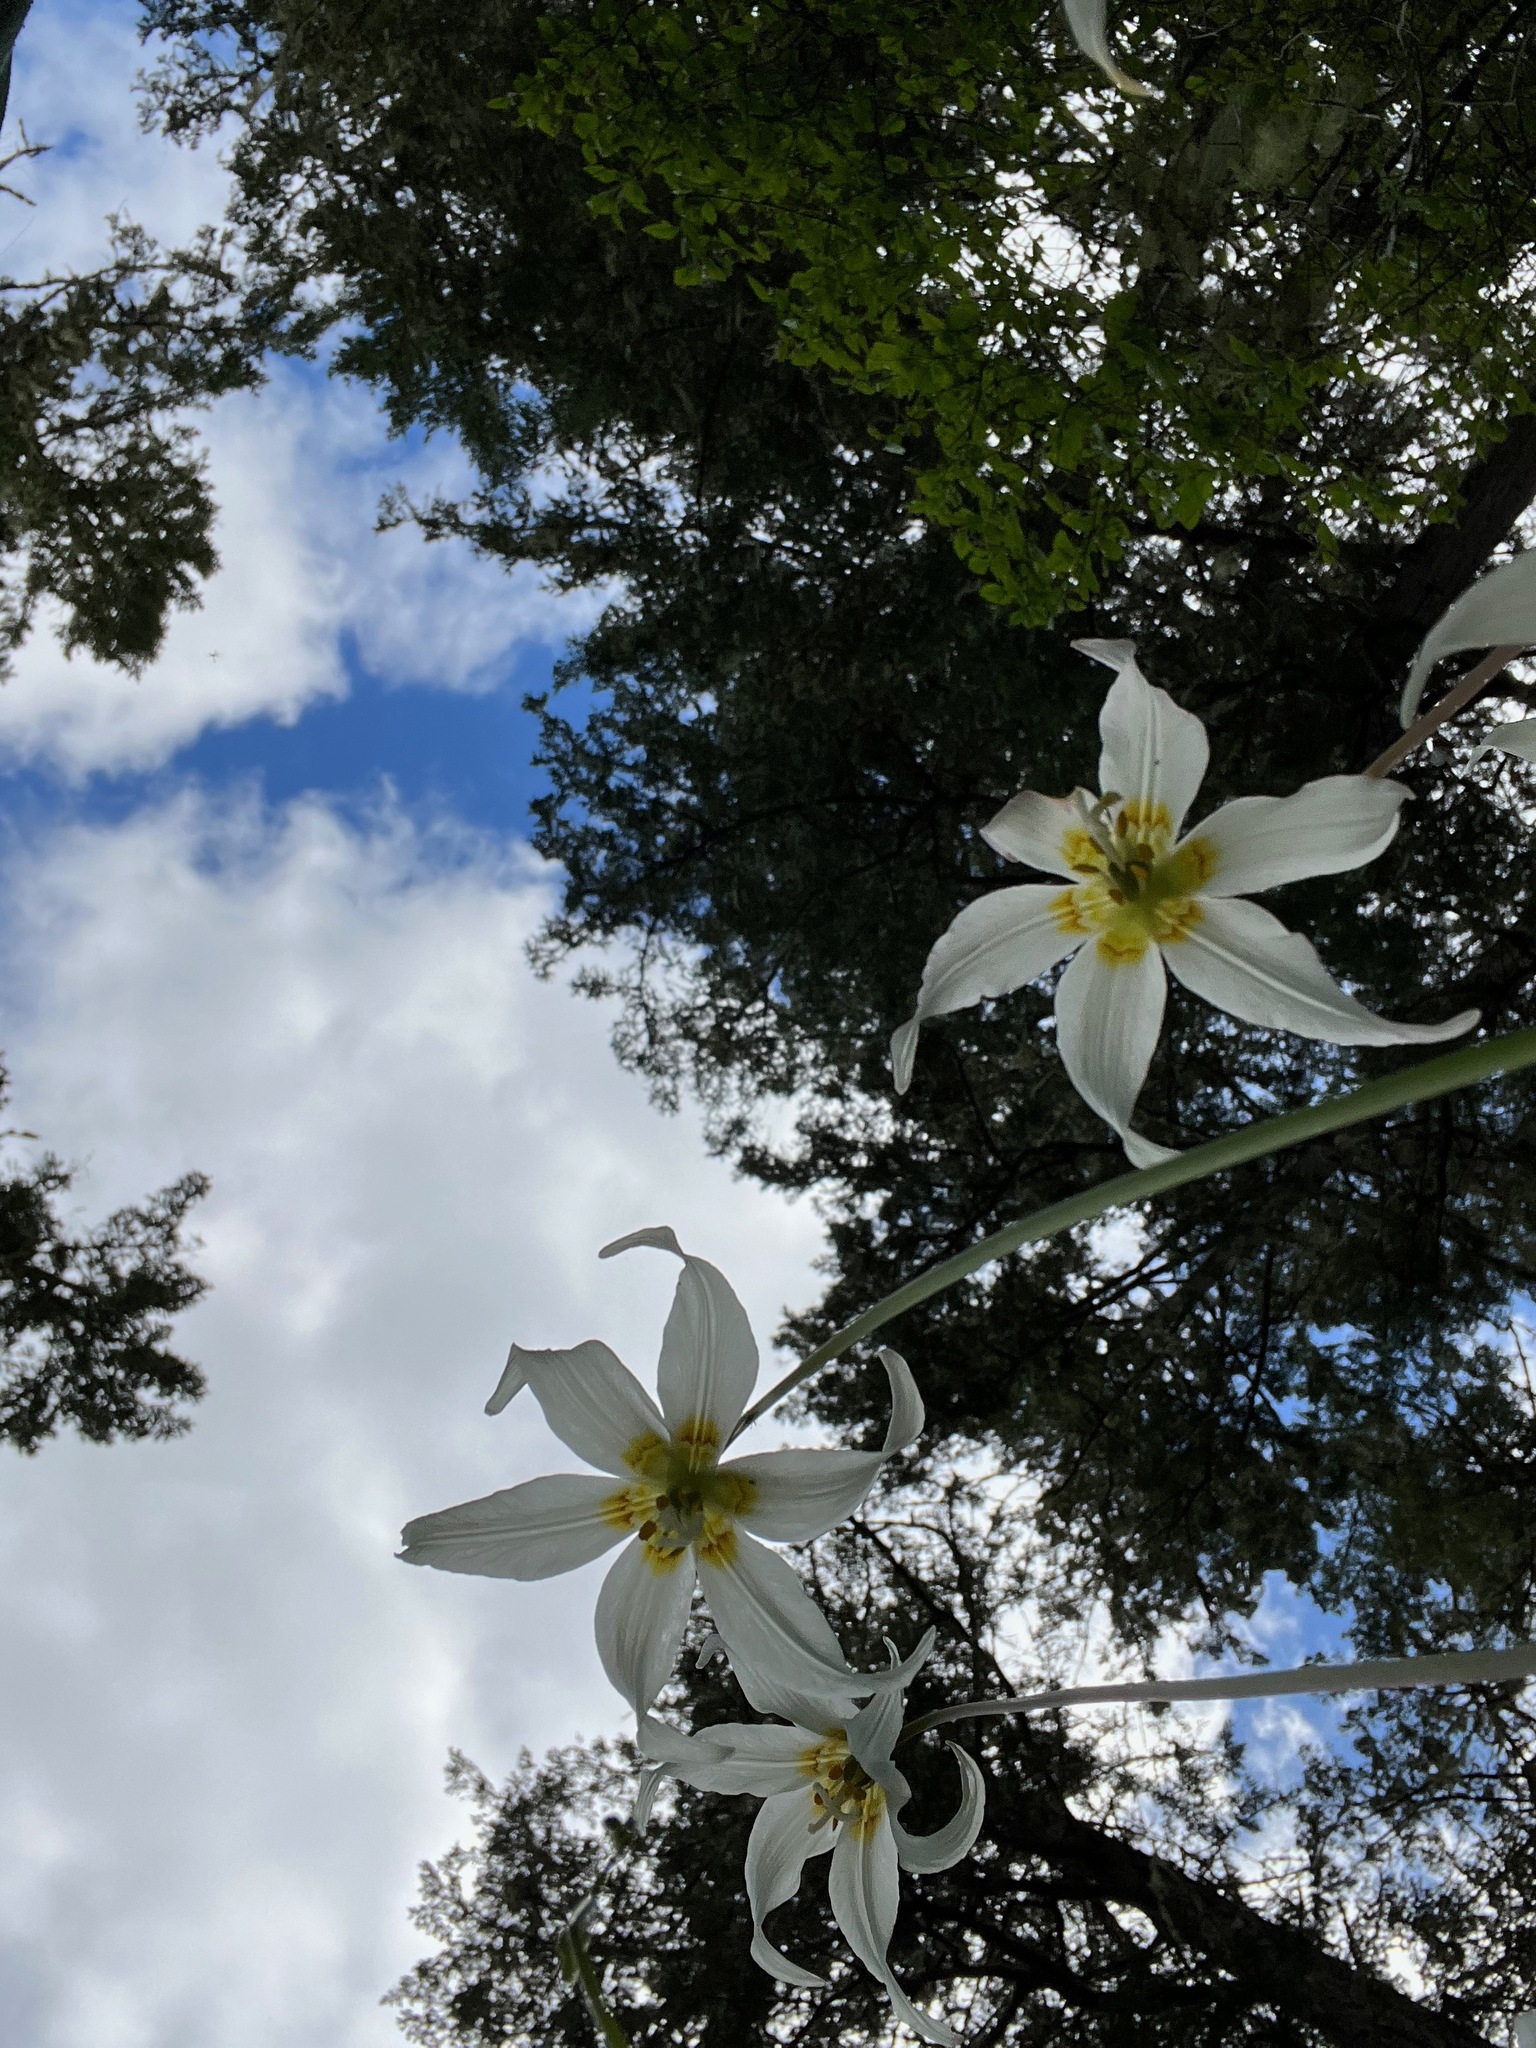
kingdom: Plantae
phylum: Tracheophyta
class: Liliopsida
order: Liliales
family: Liliaceae
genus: Erythronium
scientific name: Erythronium oregonum
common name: Giant adder's-tongue
